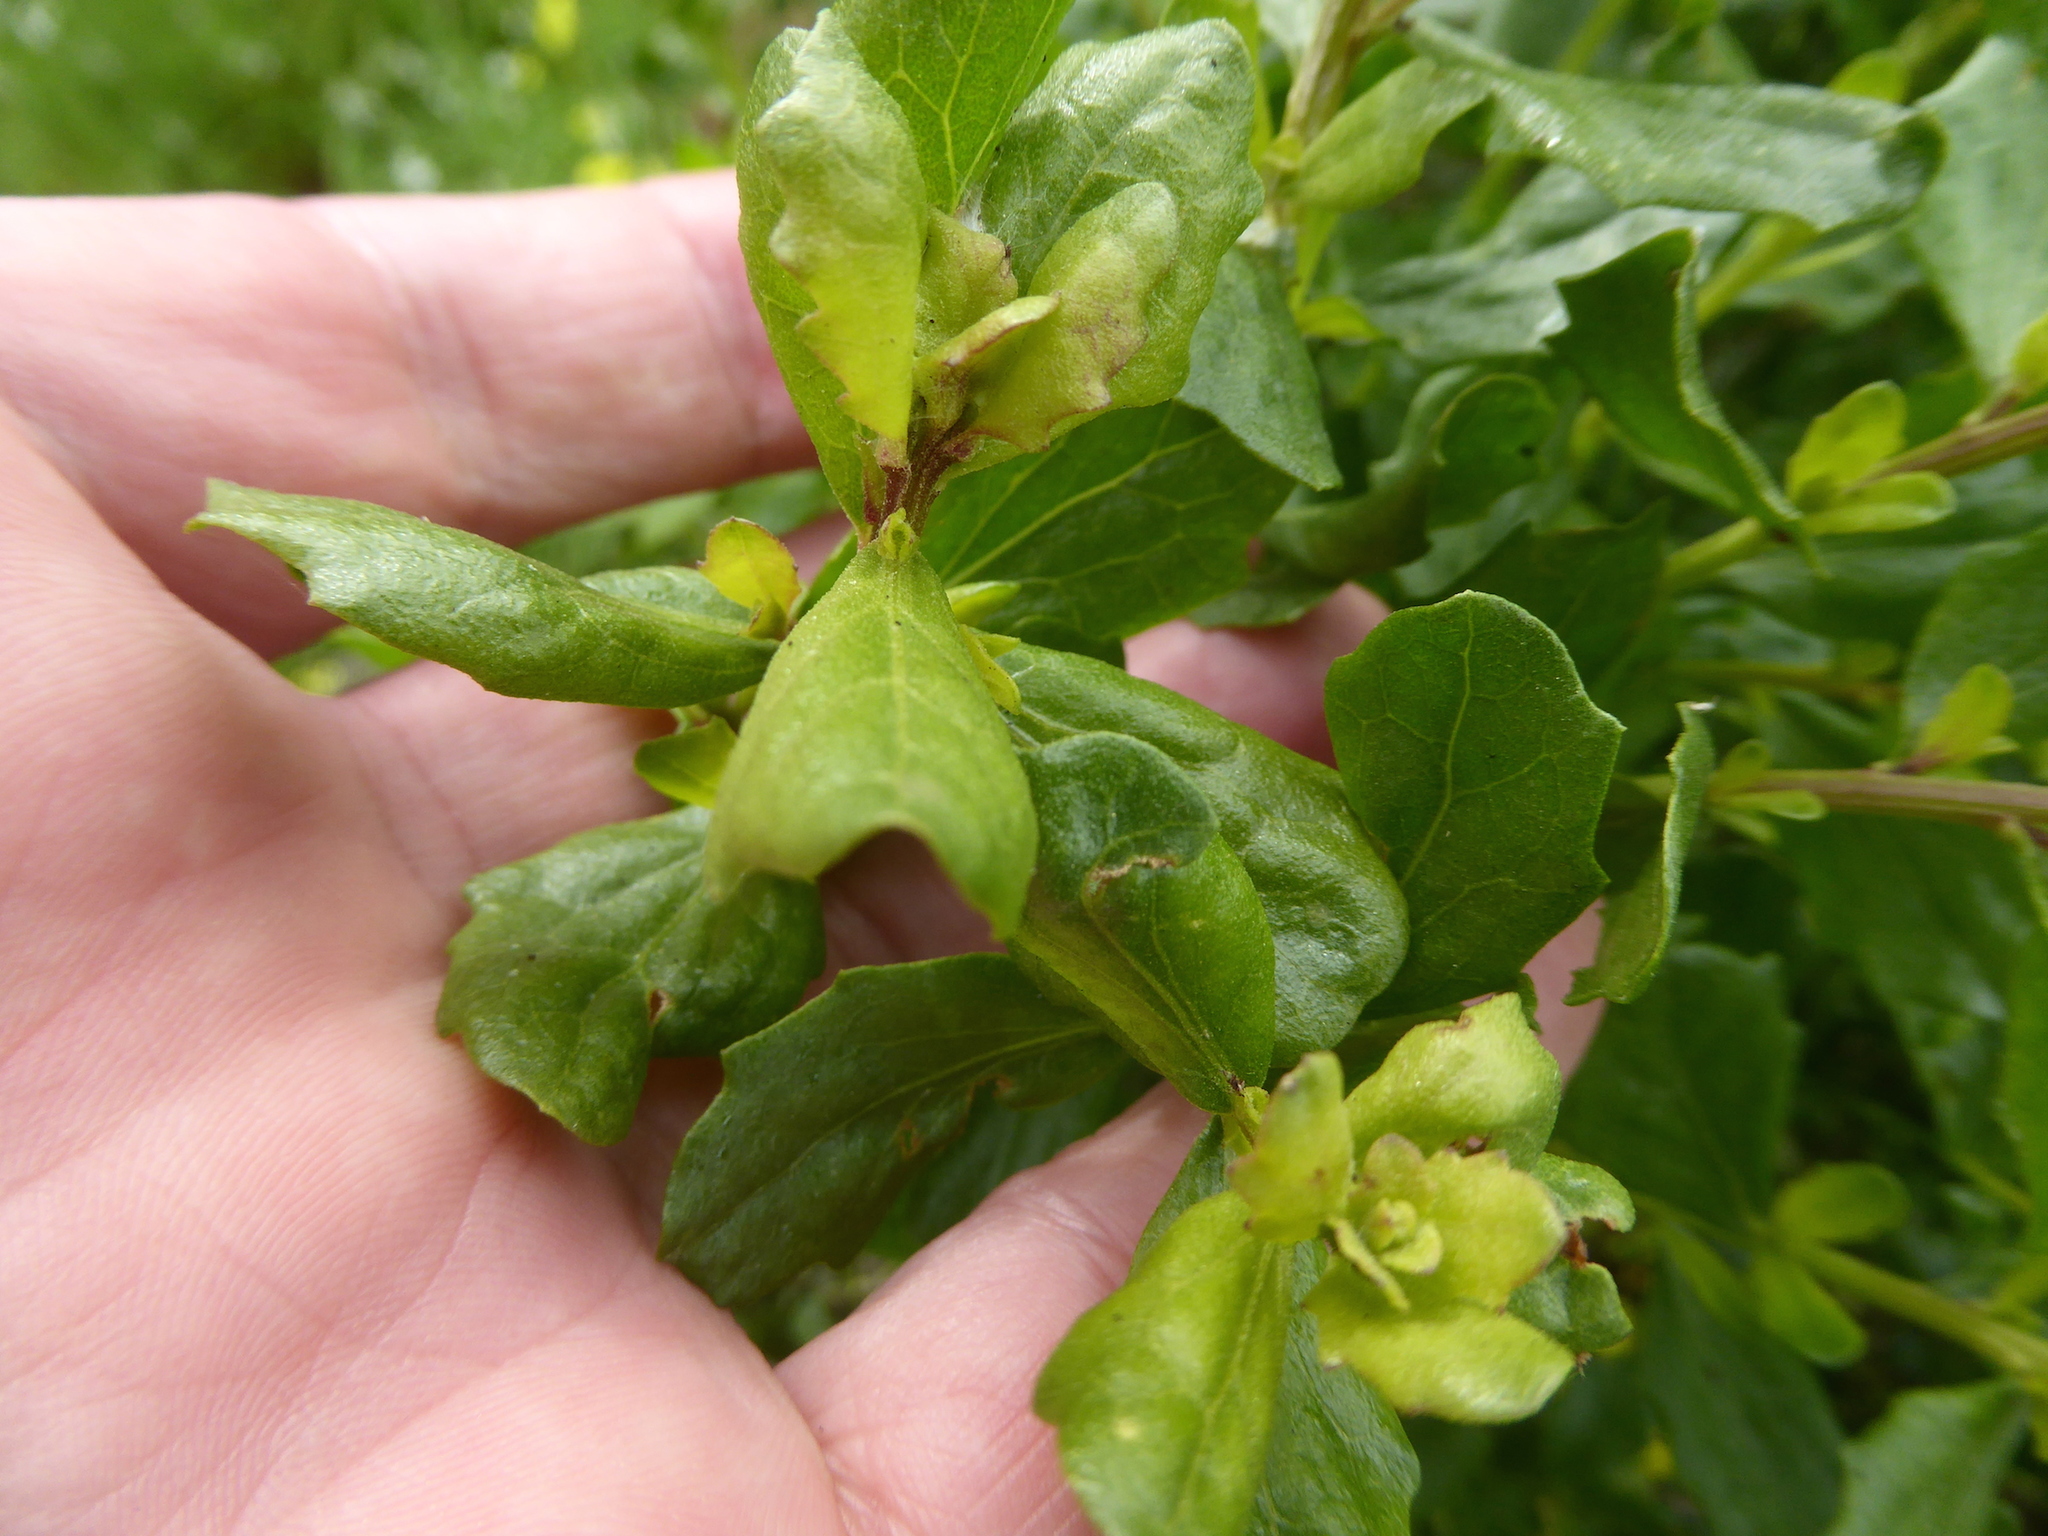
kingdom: Plantae
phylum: Tracheophyta
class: Magnoliopsida
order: Asterales
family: Asteraceae
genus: Baccharis
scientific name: Baccharis pilularis
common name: Coyotebrush
